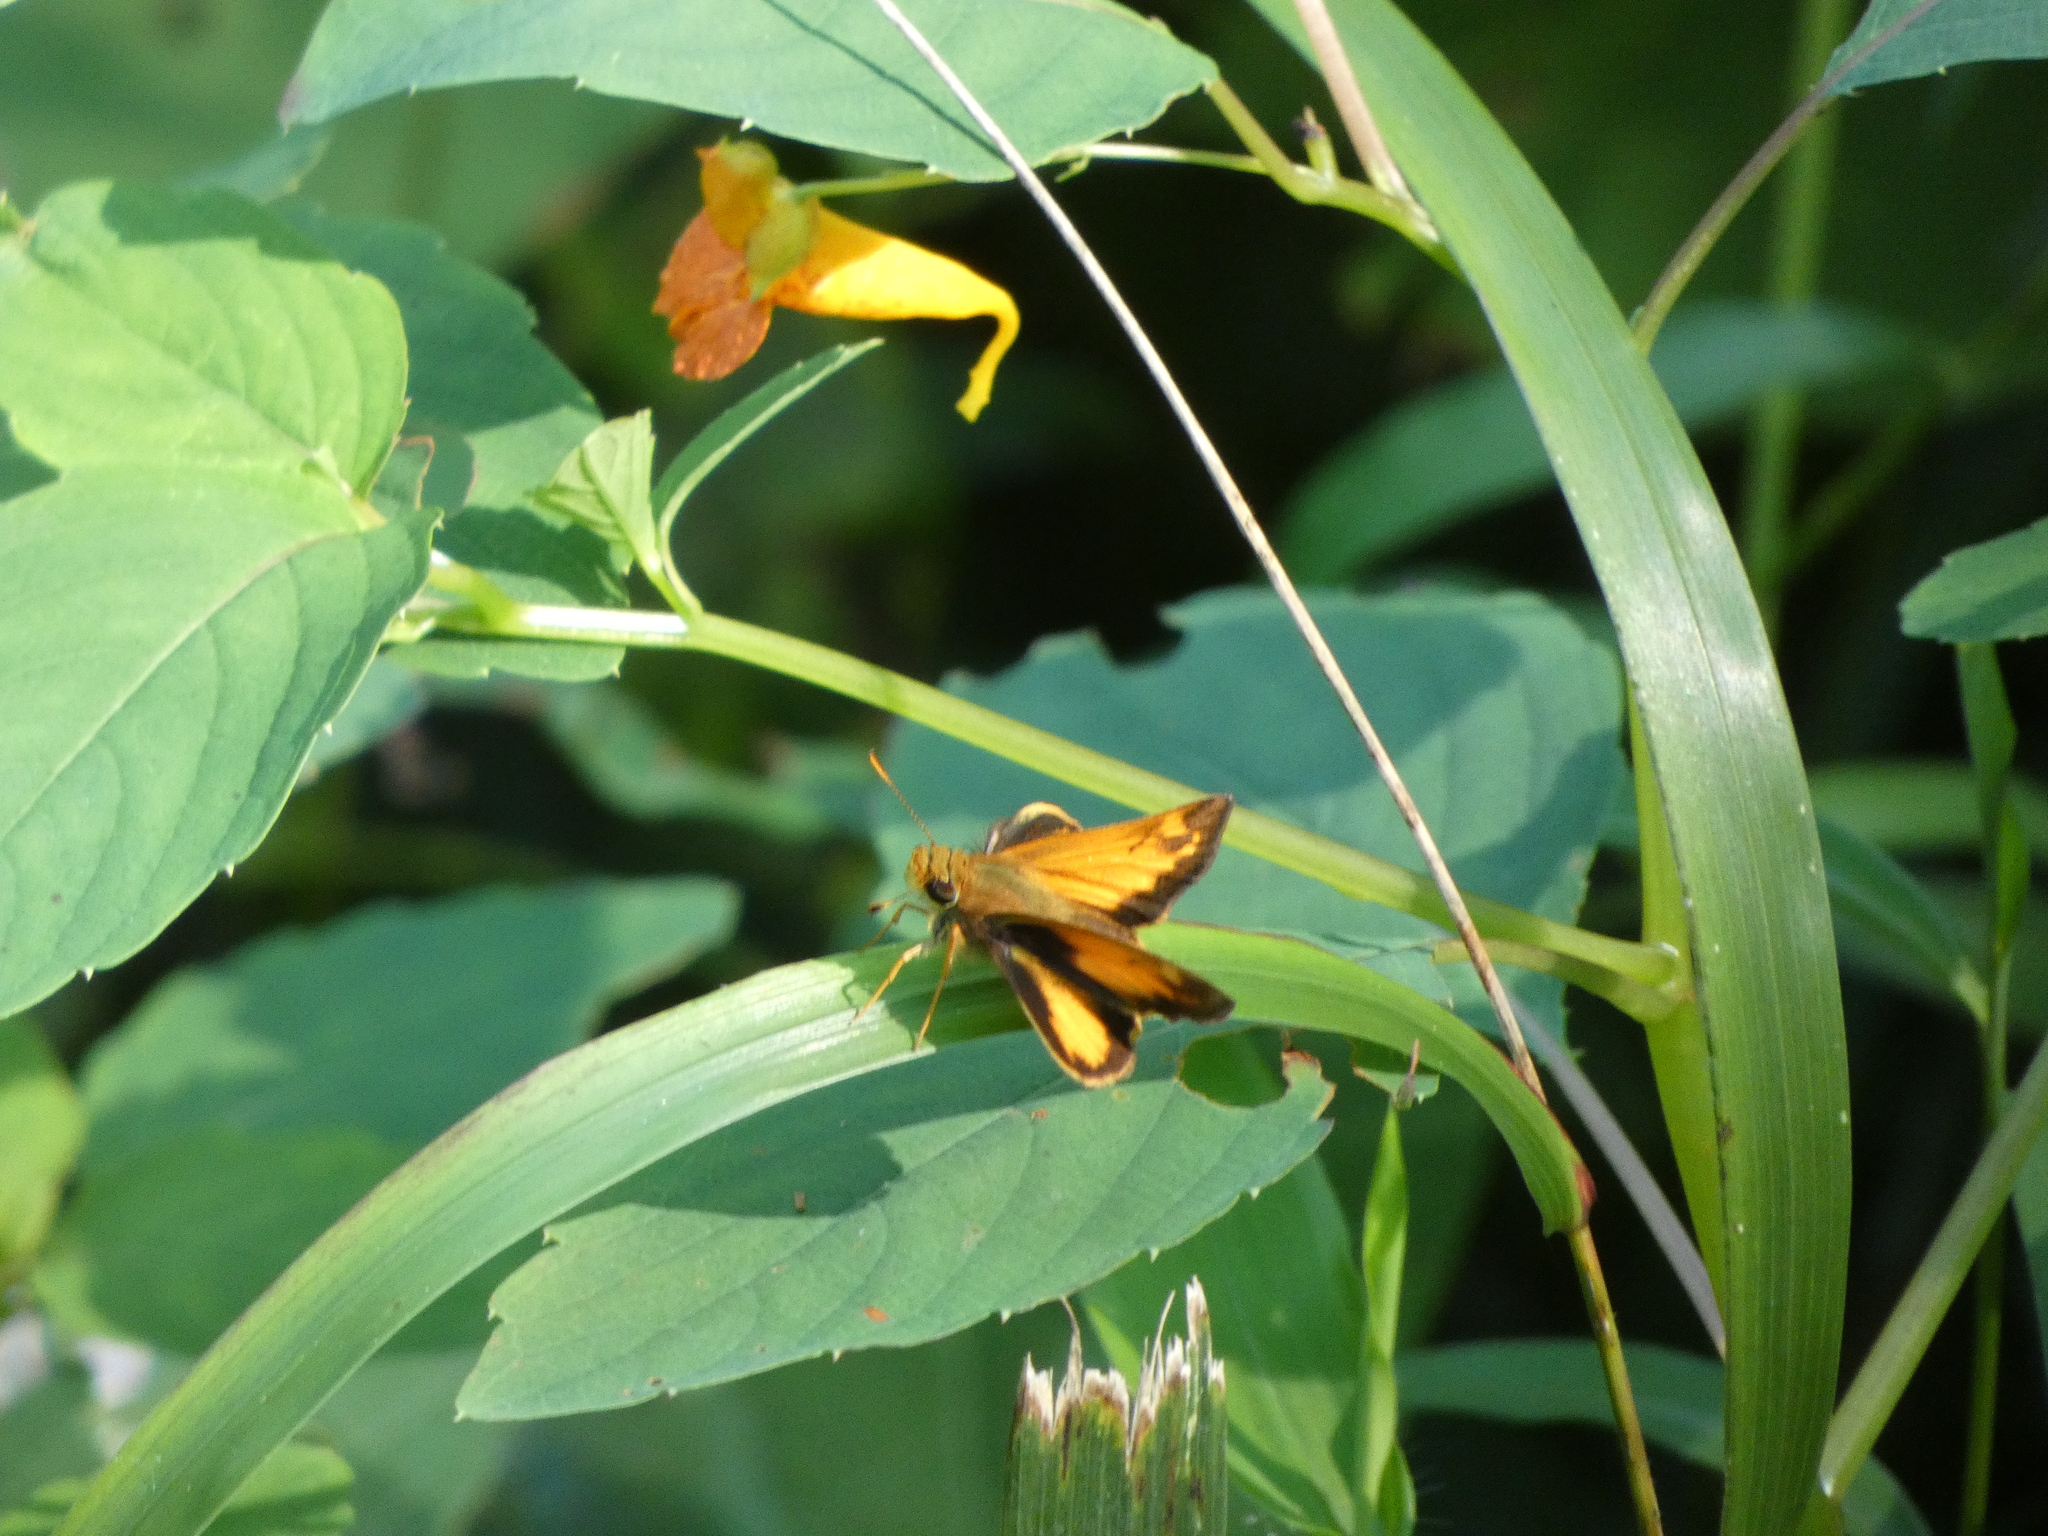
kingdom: Animalia
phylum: Arthropoda
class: Insecta
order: Lepidoptera
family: Hesperiidae
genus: Lon
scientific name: Lon zabulon
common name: Zabulon skipper
